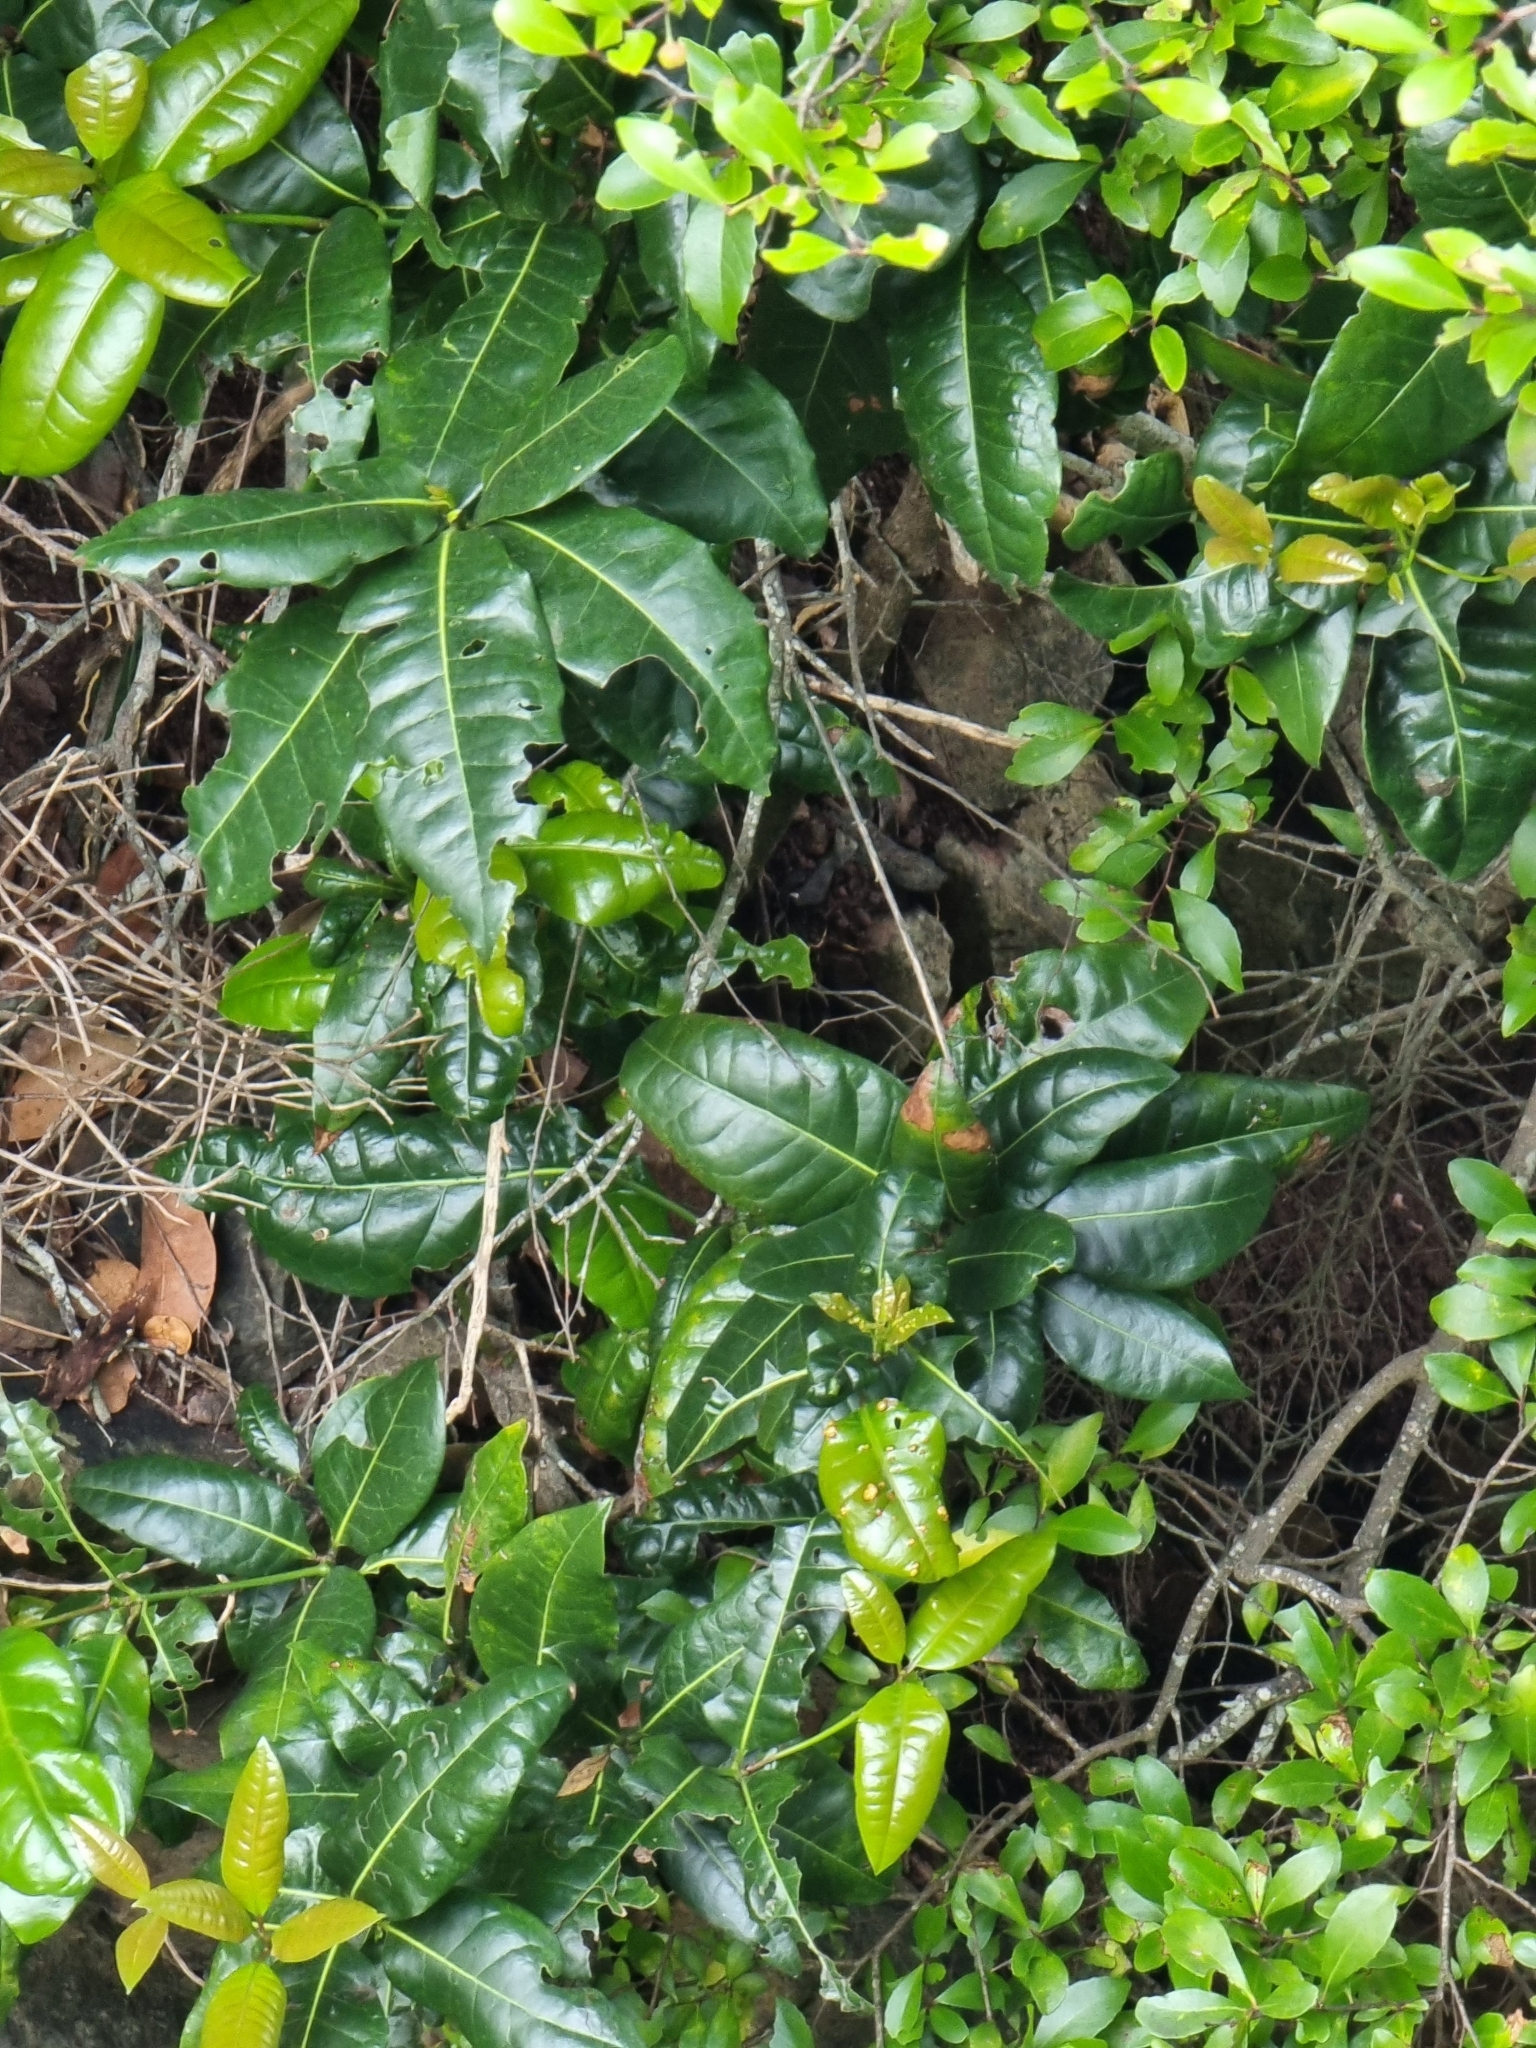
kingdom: Plantae
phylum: Tracheophyta
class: Magnoliopsida
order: Laurales
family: Lauraceae
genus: Apollonias
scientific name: Apollonias barbujana
